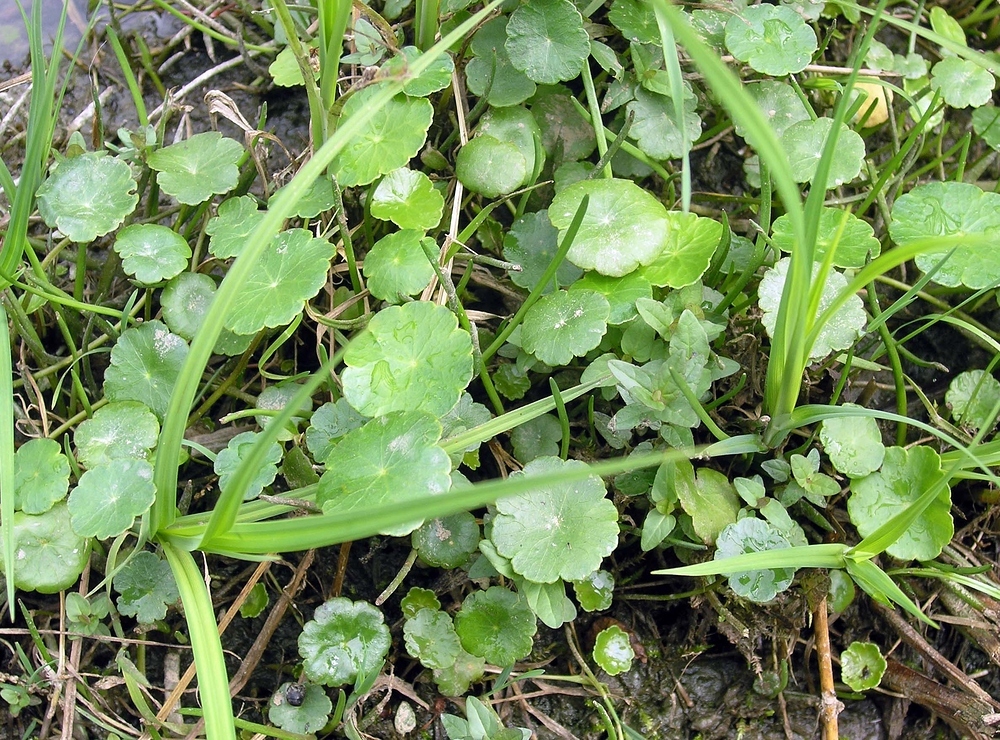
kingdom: Plantae
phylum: Tracheophyta
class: Magnoliopsida
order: Apiales
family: Araliaceae
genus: Hydrocotyle
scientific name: Hydrocotyle vulgaris
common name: Marsh pennywort
